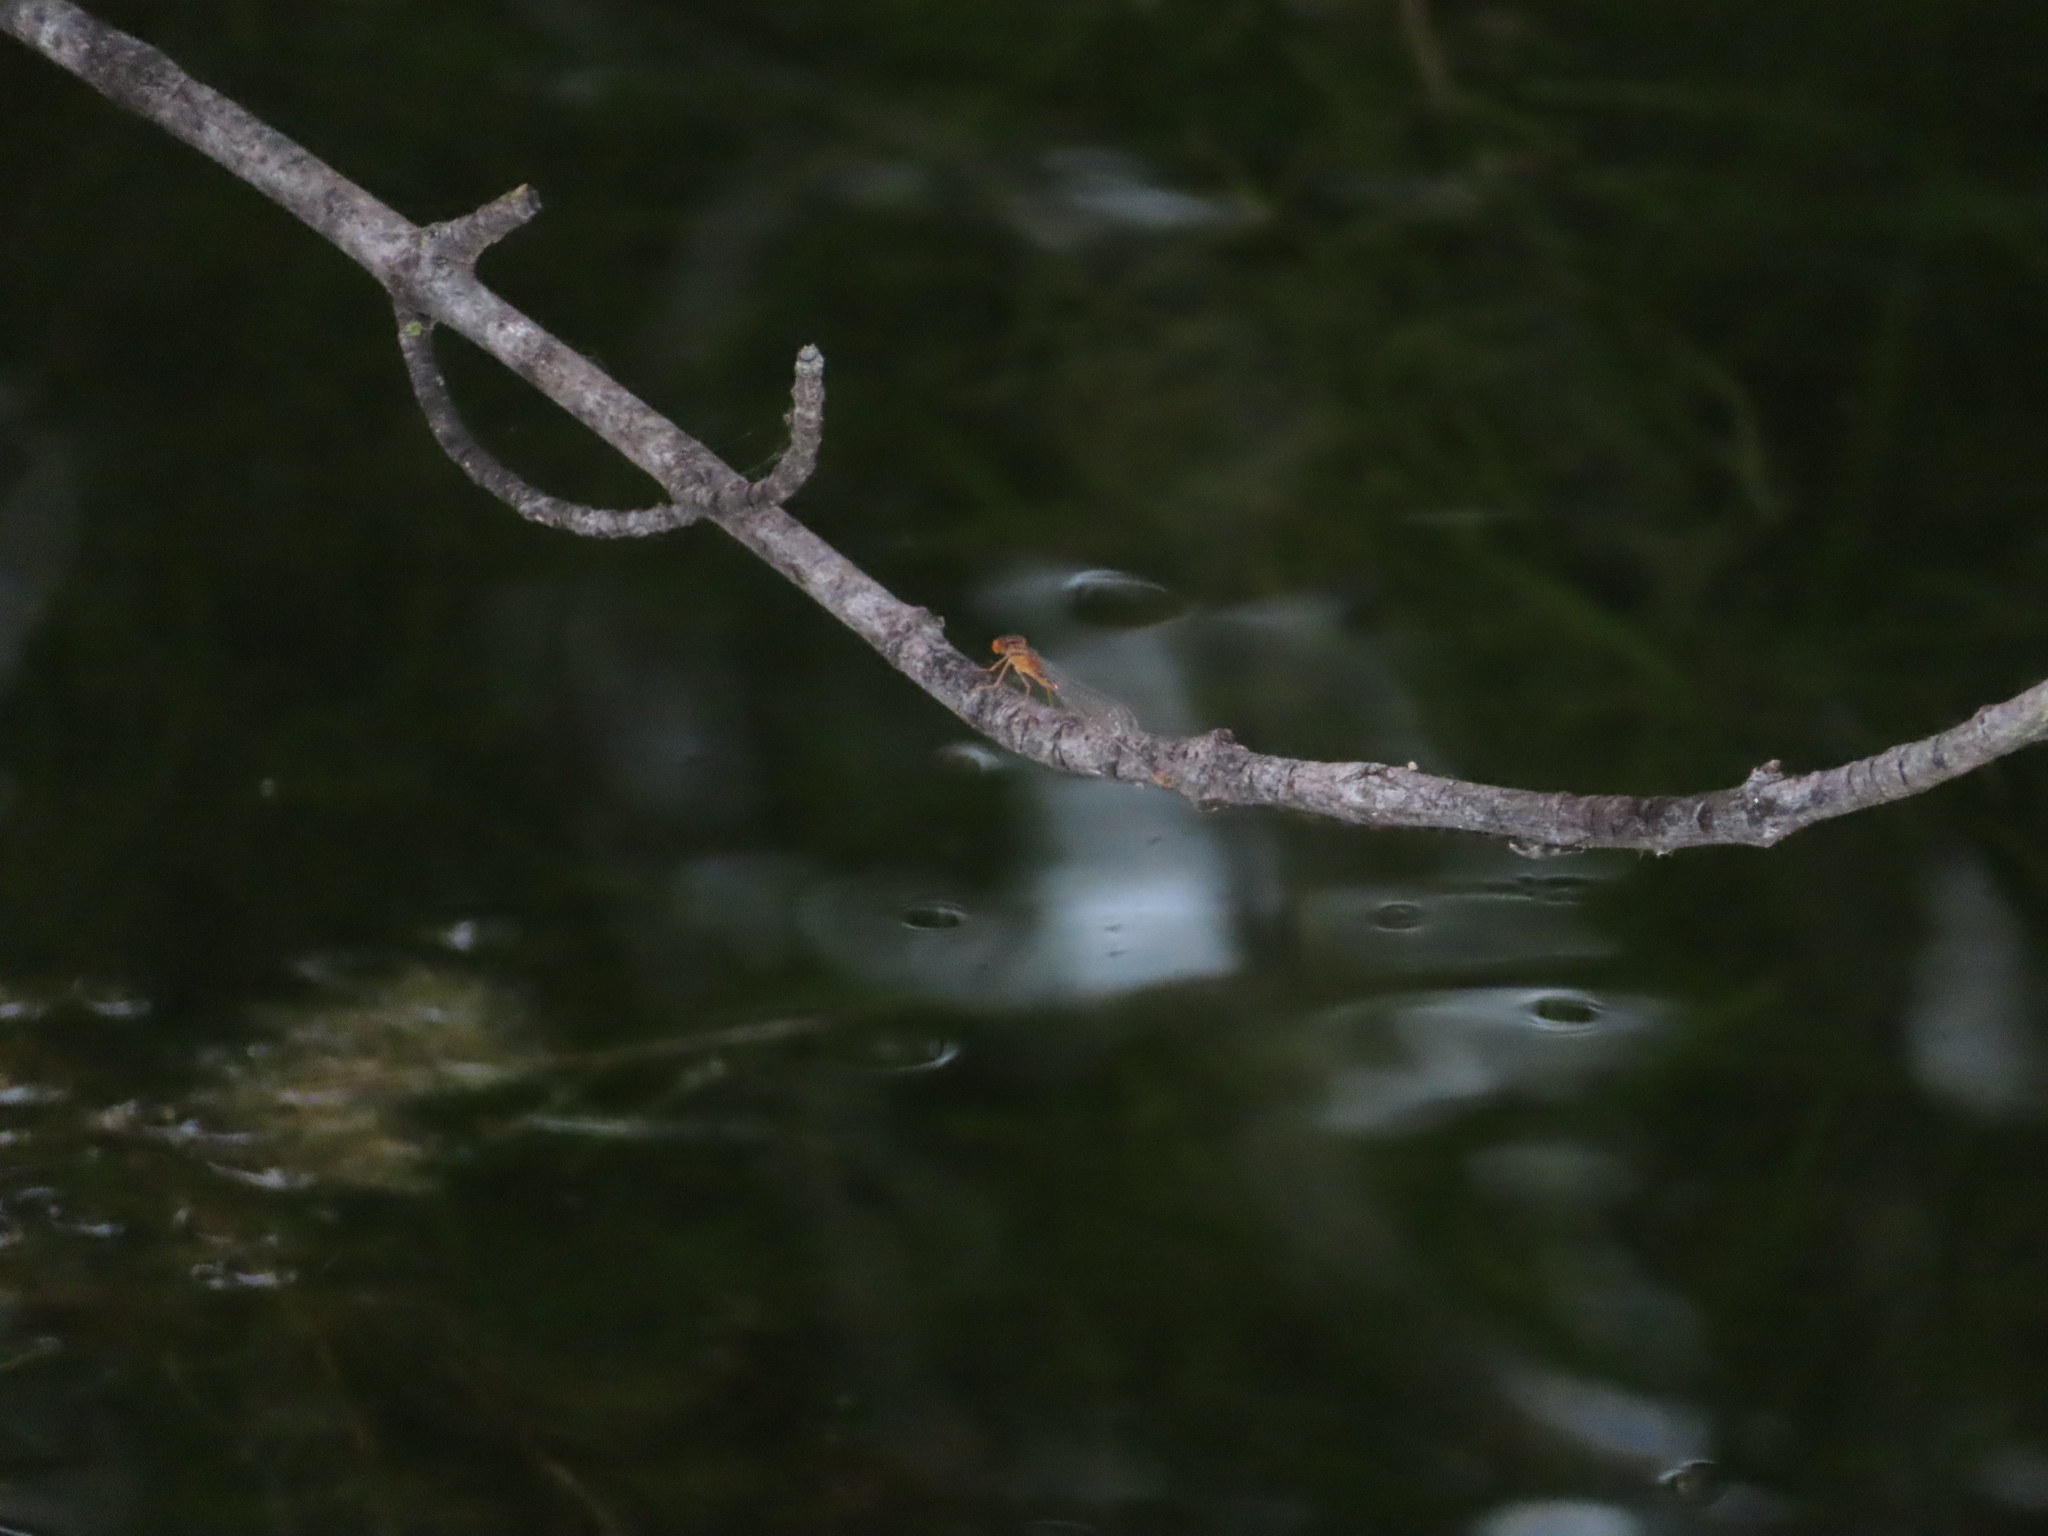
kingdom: Animalia
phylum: Arthropoda
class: Insecta
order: Odonata
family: Coenagrionidae
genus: Enallagma
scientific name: Enallagma signatum
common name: Orange bluet
